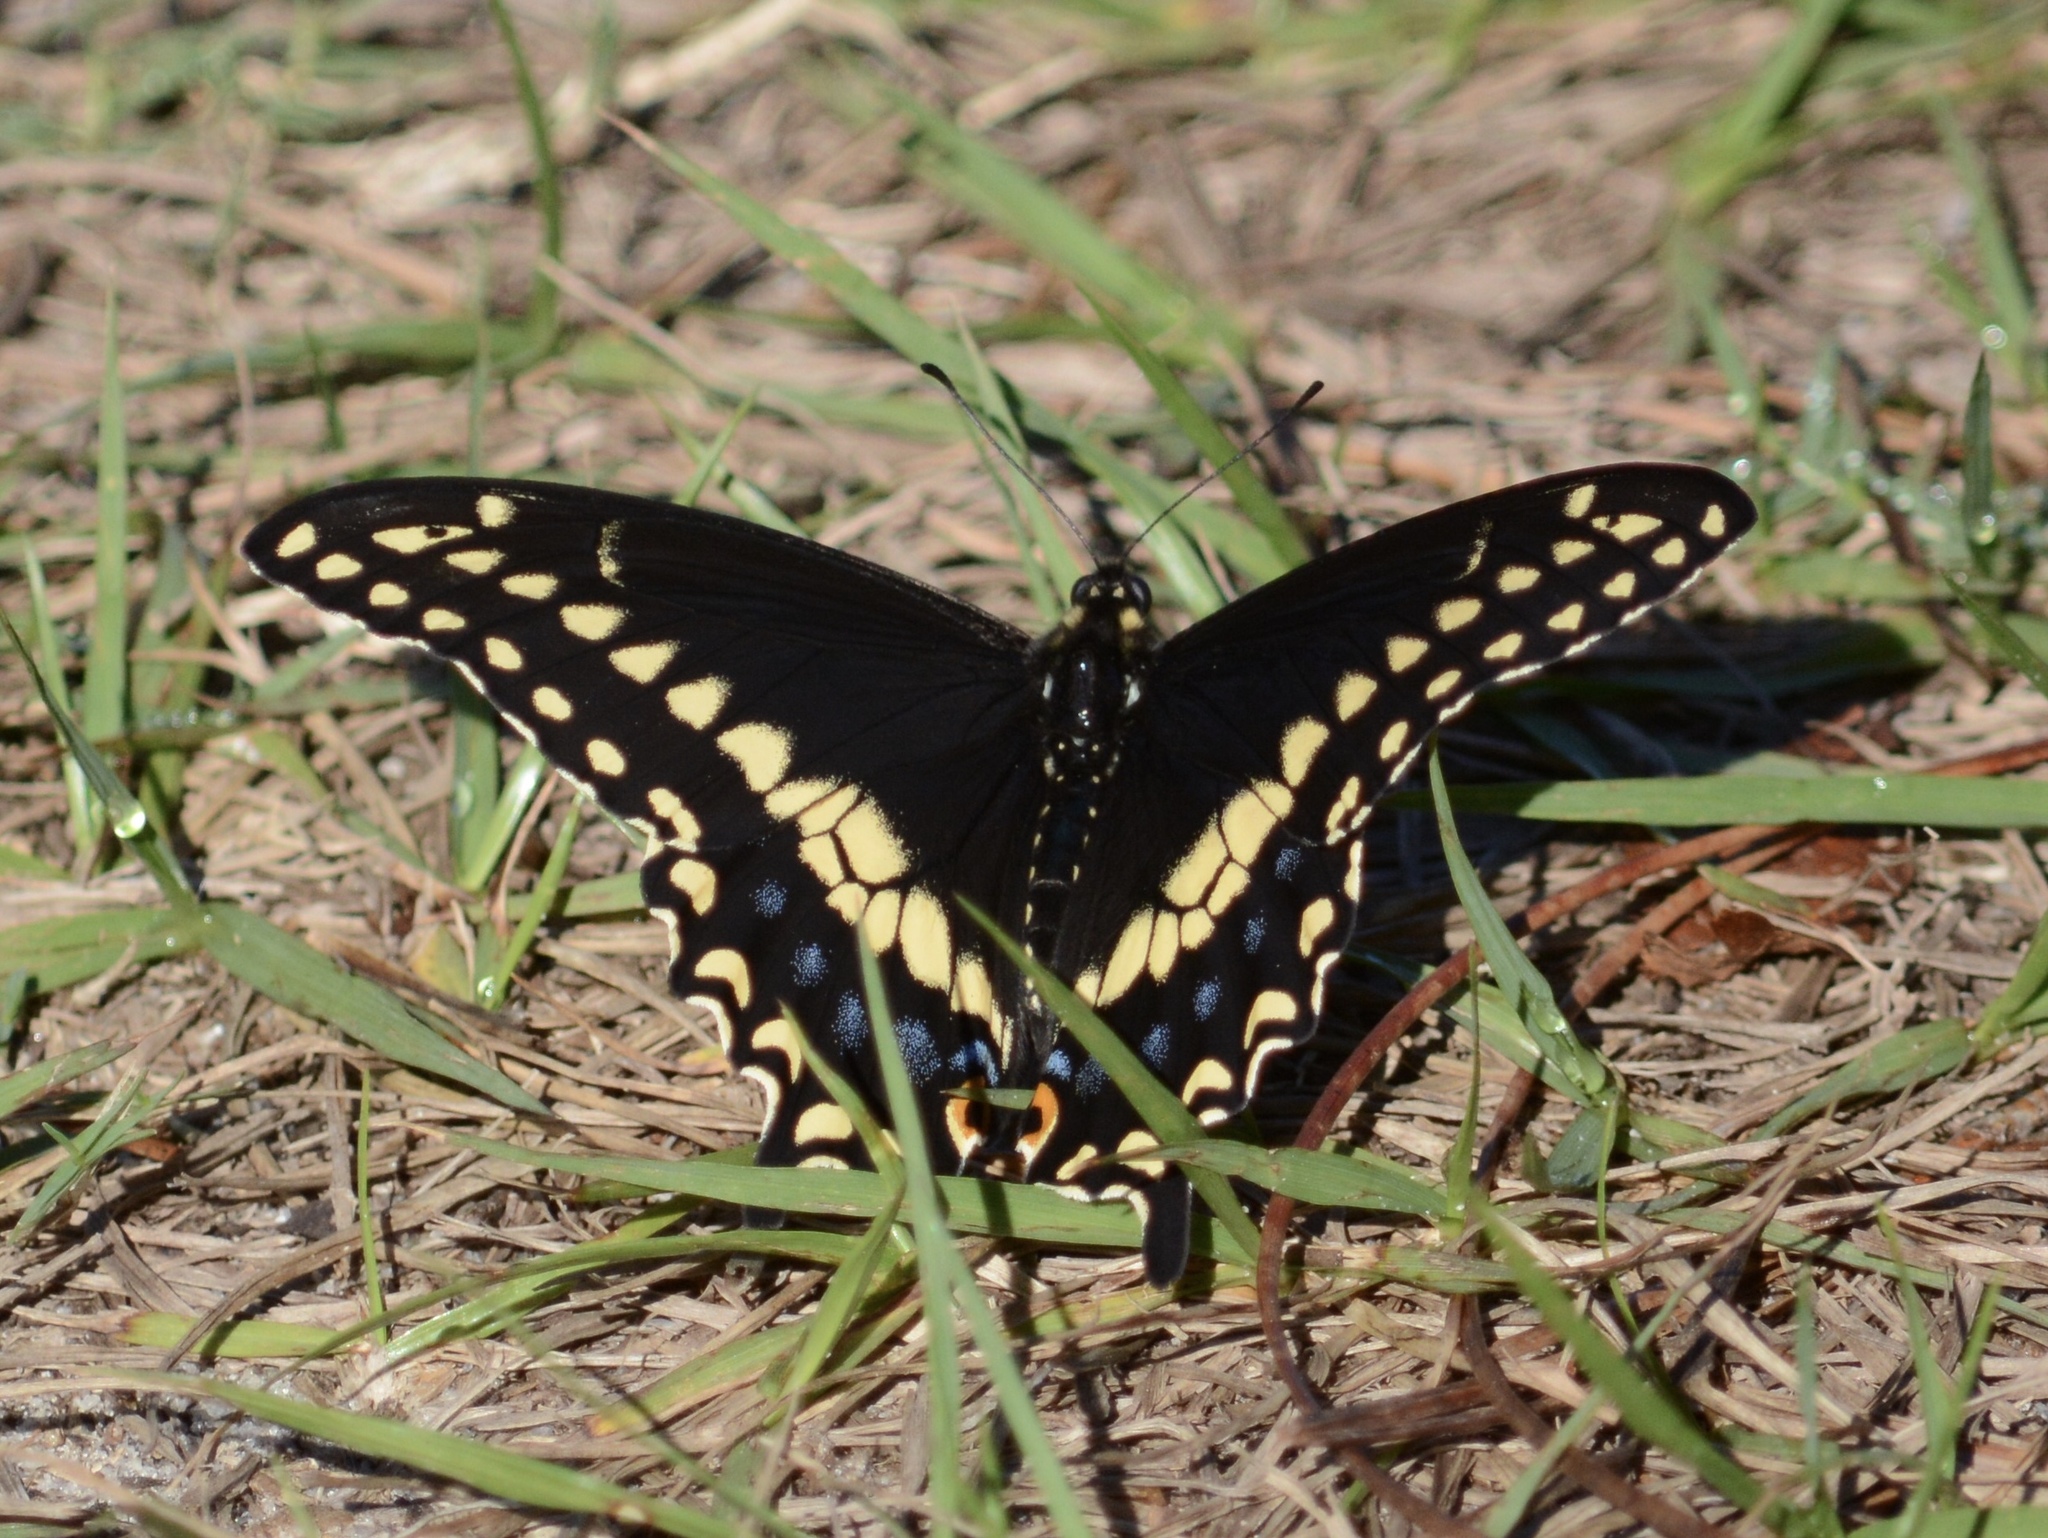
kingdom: Animalia
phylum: Arthropoda
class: Insecta
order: Lepidoptera
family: Papilionidae
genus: Papilio
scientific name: Papilio polyxenes
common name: Black swallowtail
